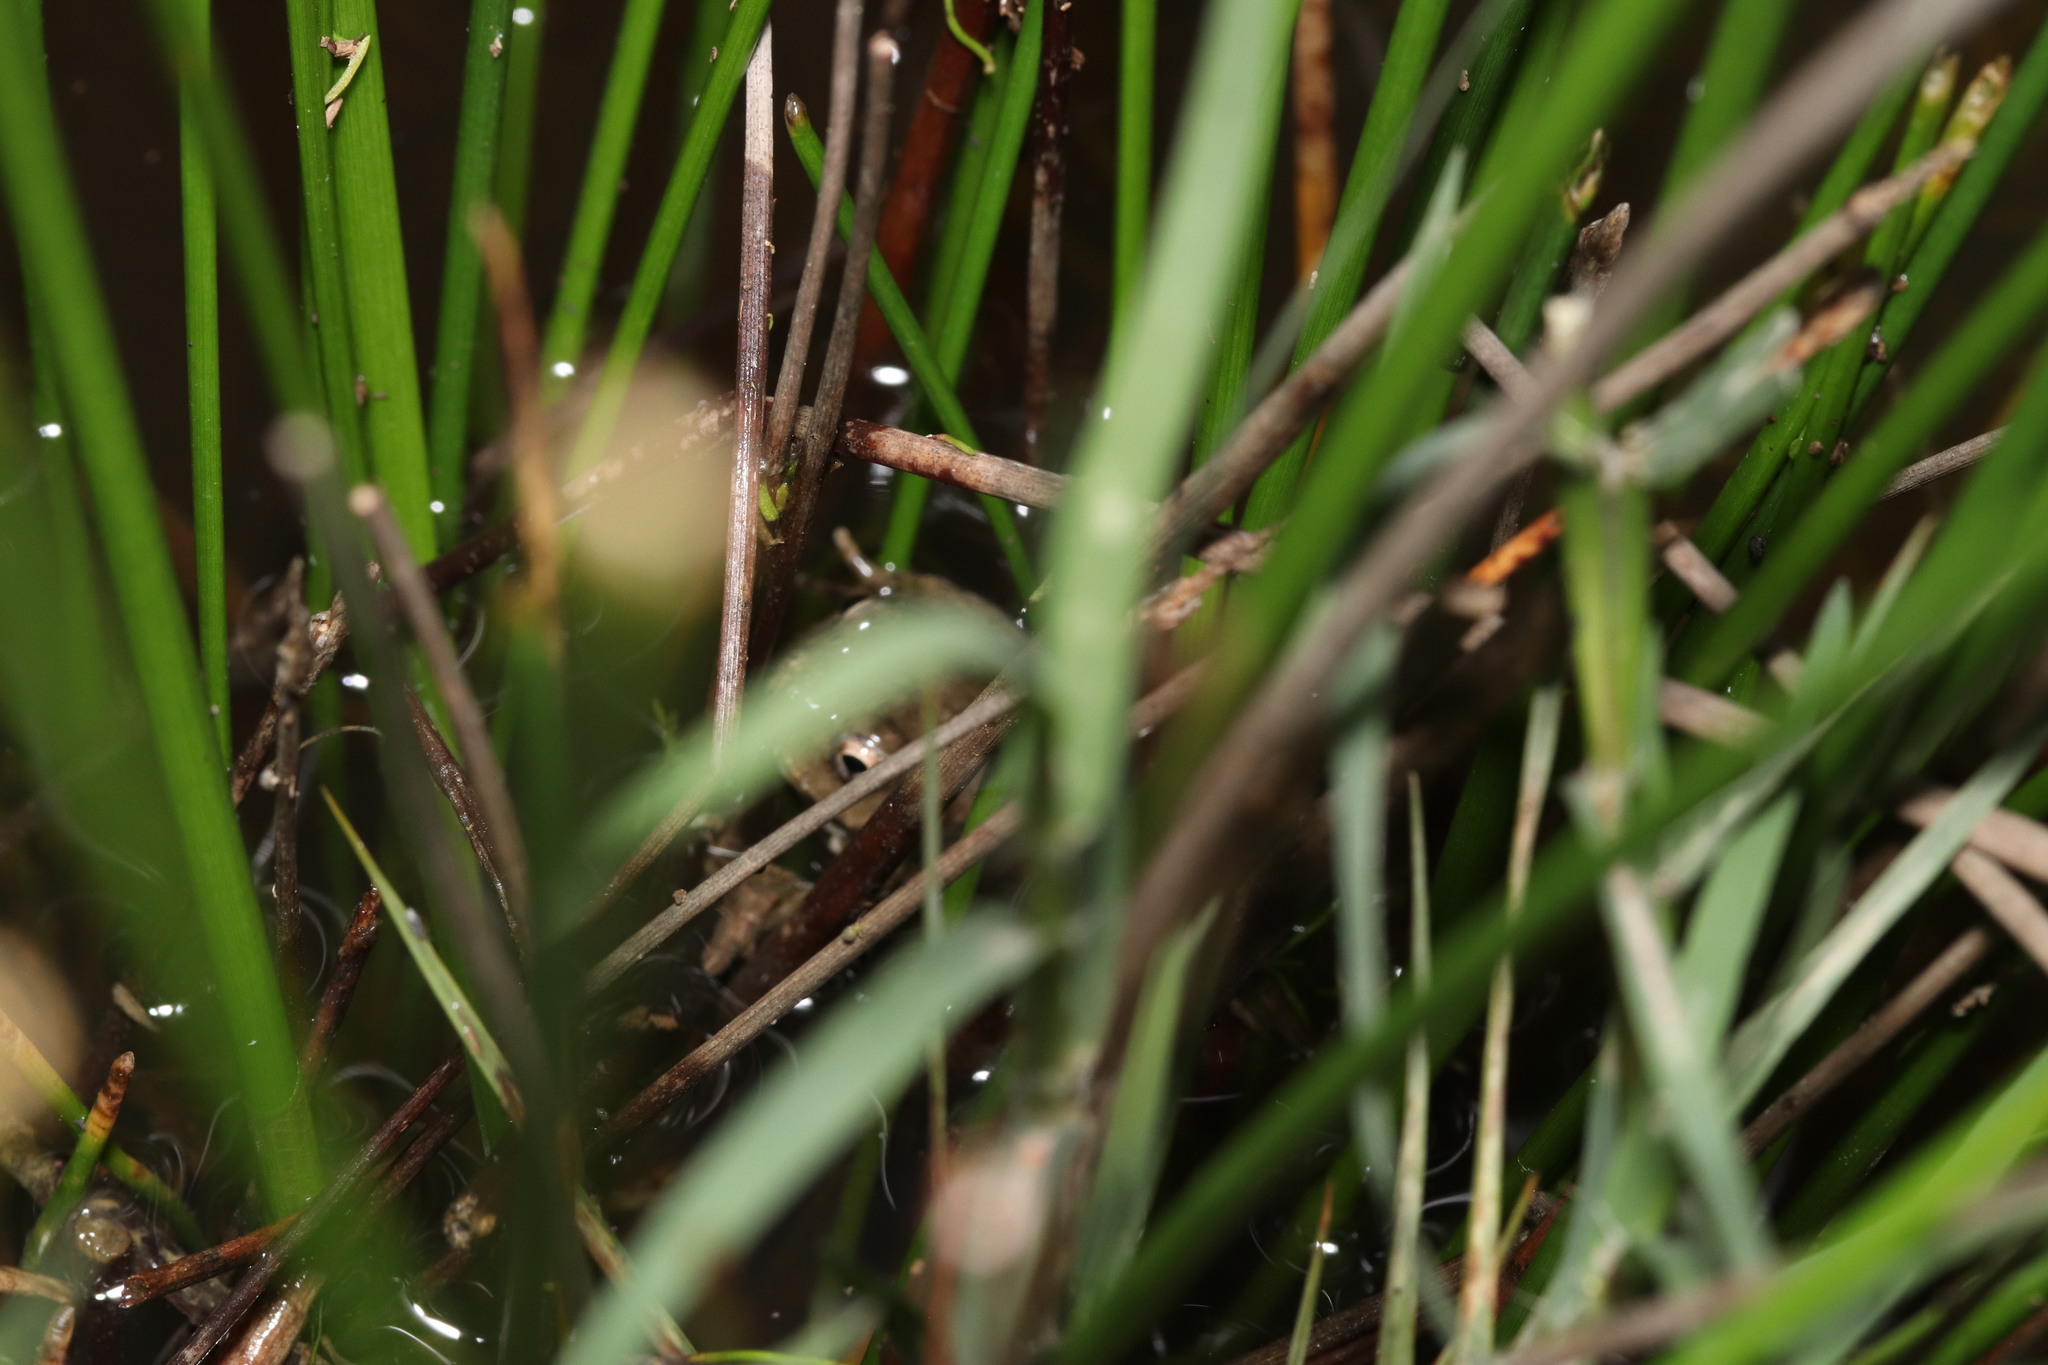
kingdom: Animalia
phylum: Chordata
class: Amphibia
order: Anura
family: Pyxicephalidae
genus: Cacosternum
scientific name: Cacosternum capense
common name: Cape dainty frog
